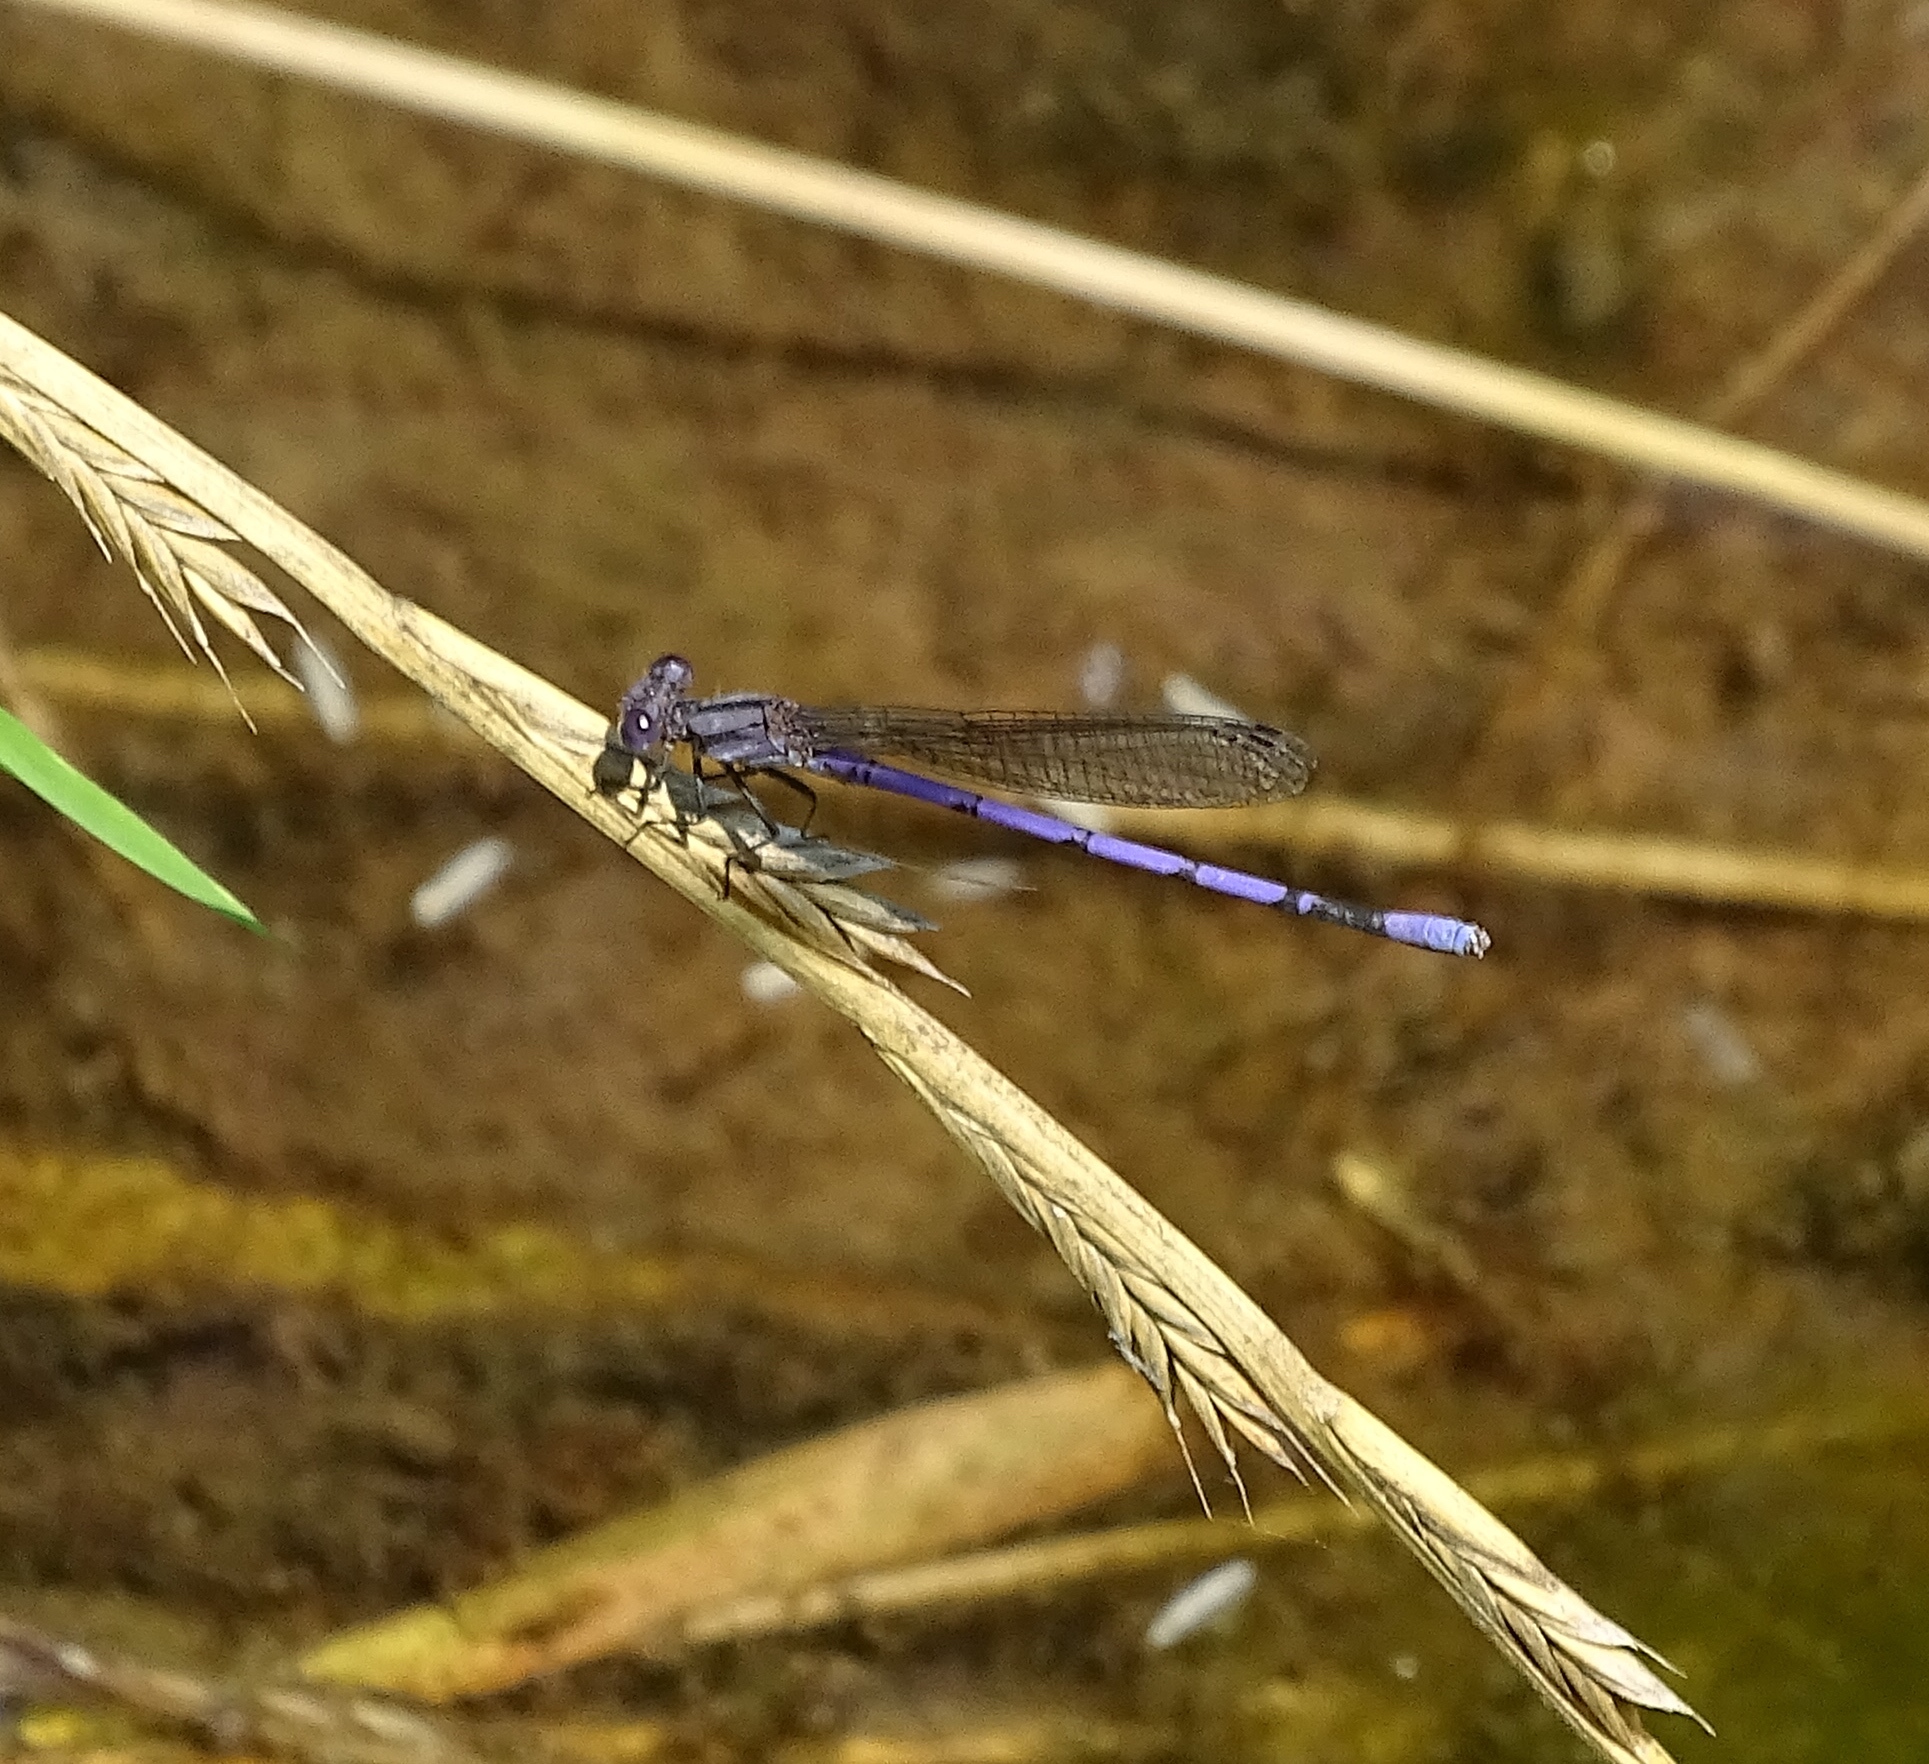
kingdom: Animalia
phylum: Arthropoda
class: Insecta
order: Odonata
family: Coenagrionidae
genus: Argia
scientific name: Argia fumipennis
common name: Variable dancer
